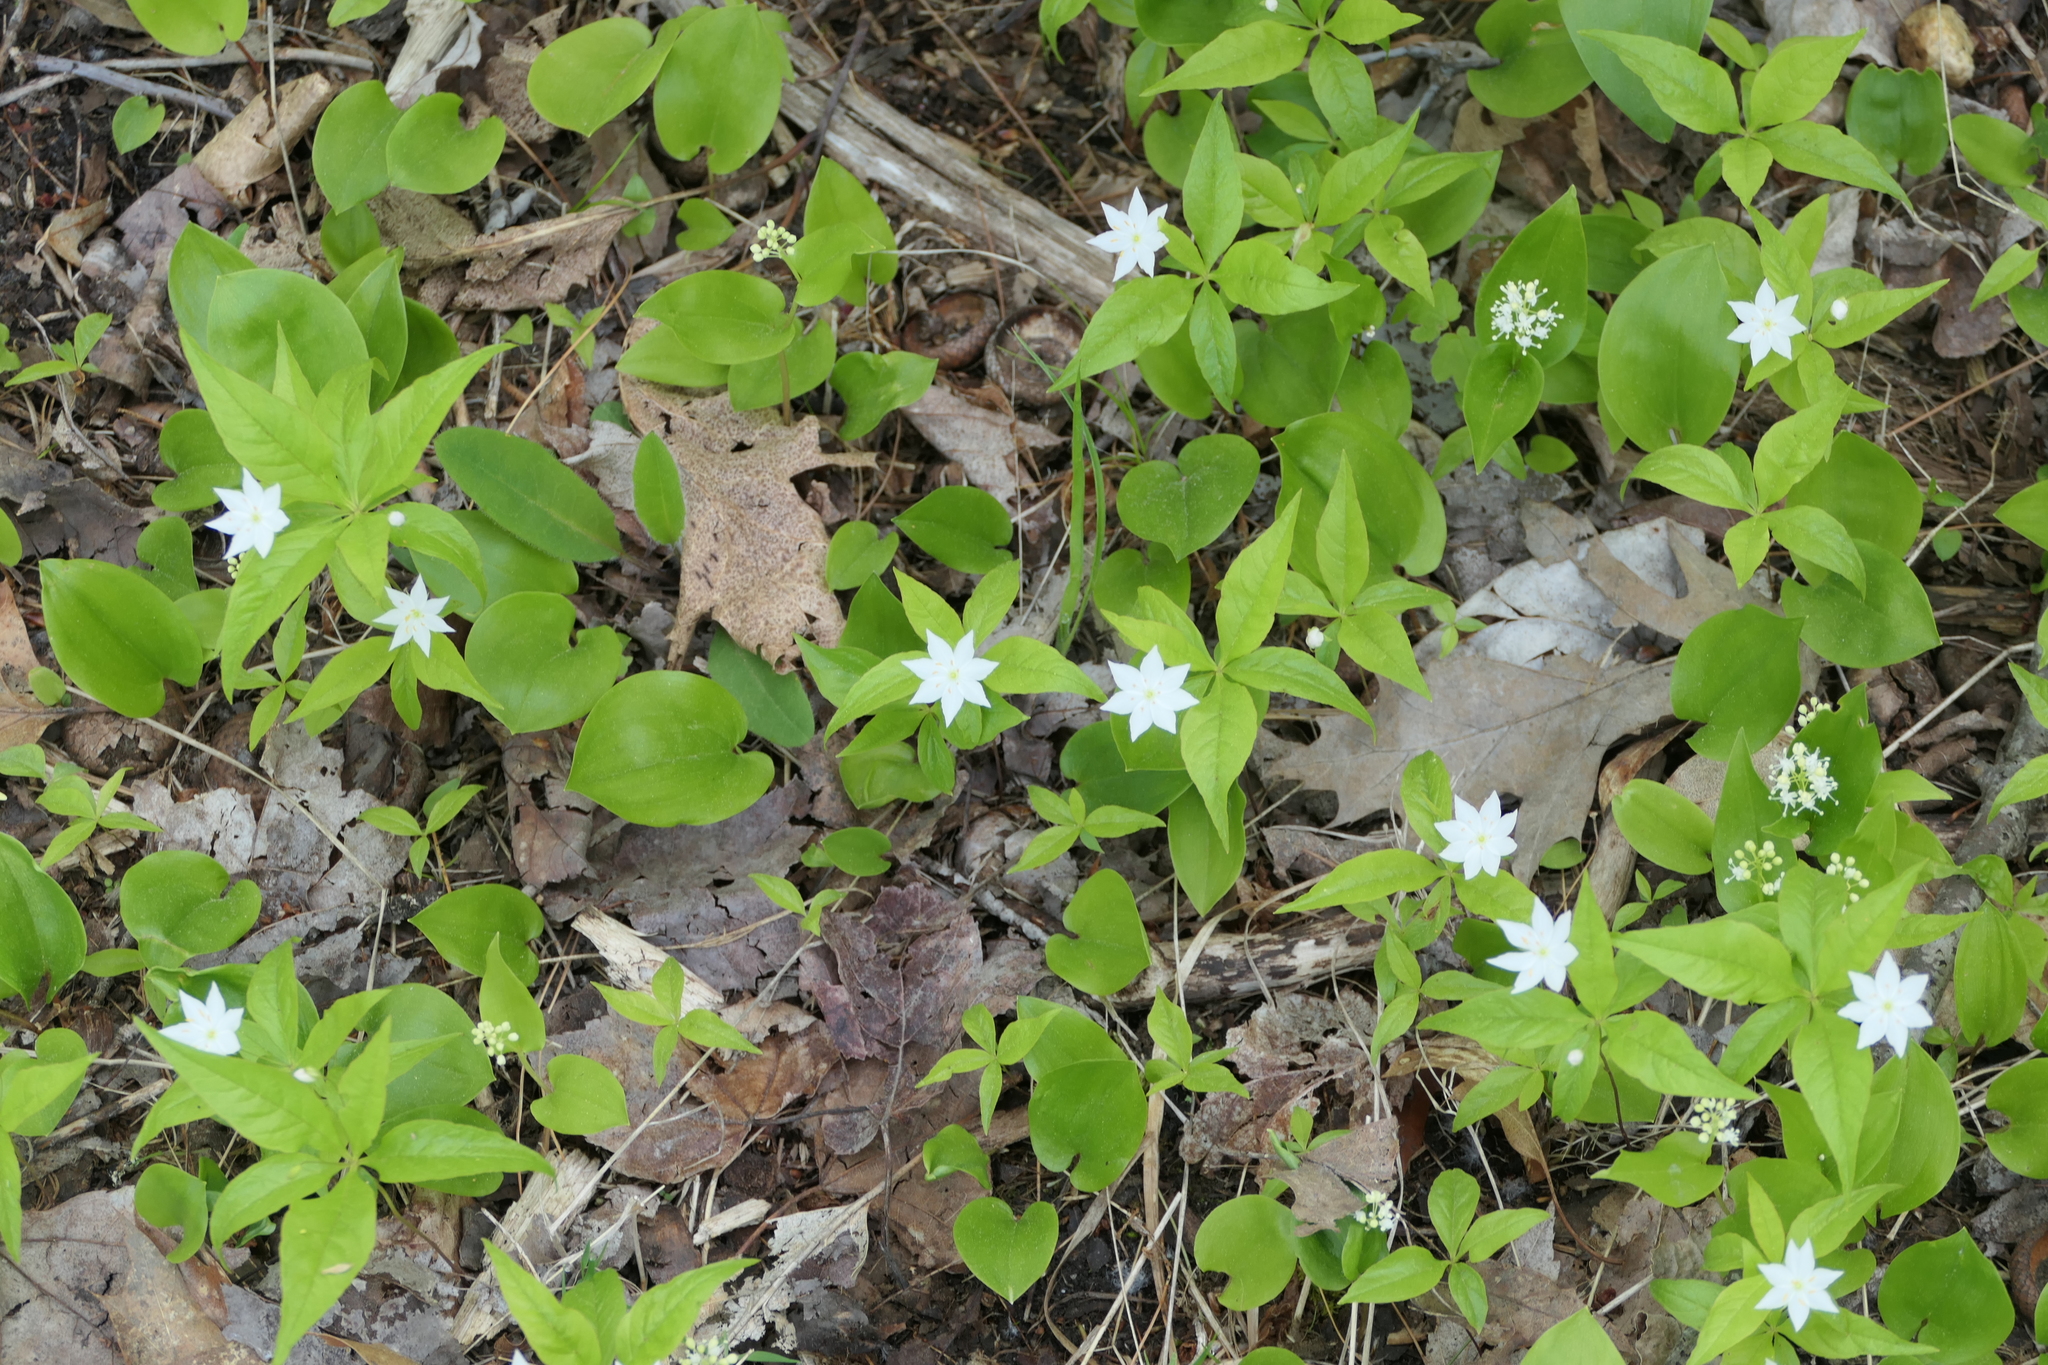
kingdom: Plantae
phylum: Tracheophyta
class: Magnoliopsida
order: Ericales
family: Primulaceae
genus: Lysimachia
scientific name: Lysimachia borealis
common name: American starflower
